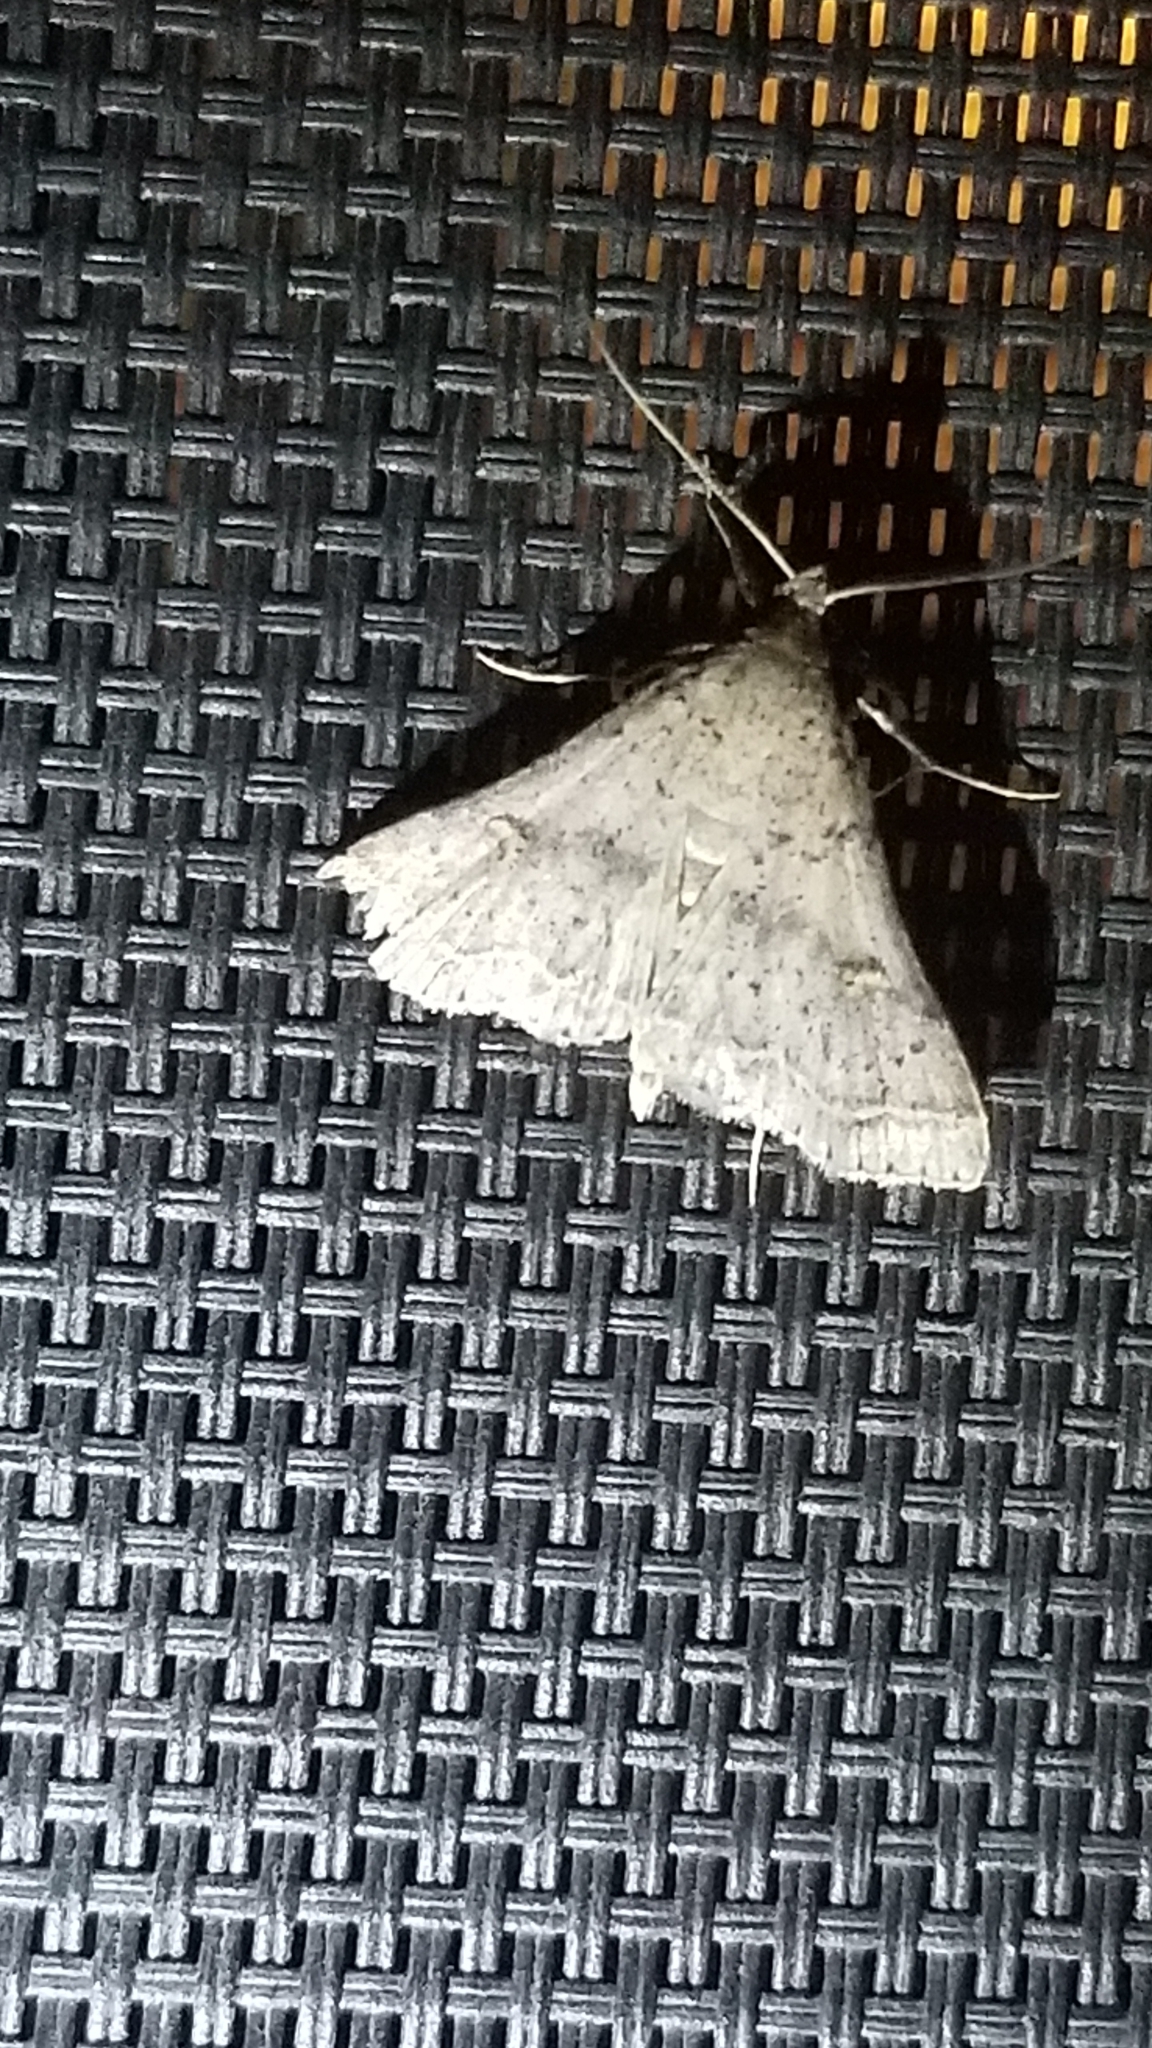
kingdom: Animalia
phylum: Arthropoda
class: Insecta
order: Lepidoptera
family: Erebidae
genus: Bleptina
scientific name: Bleptina caradrinalis
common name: Bent-winged owlet
